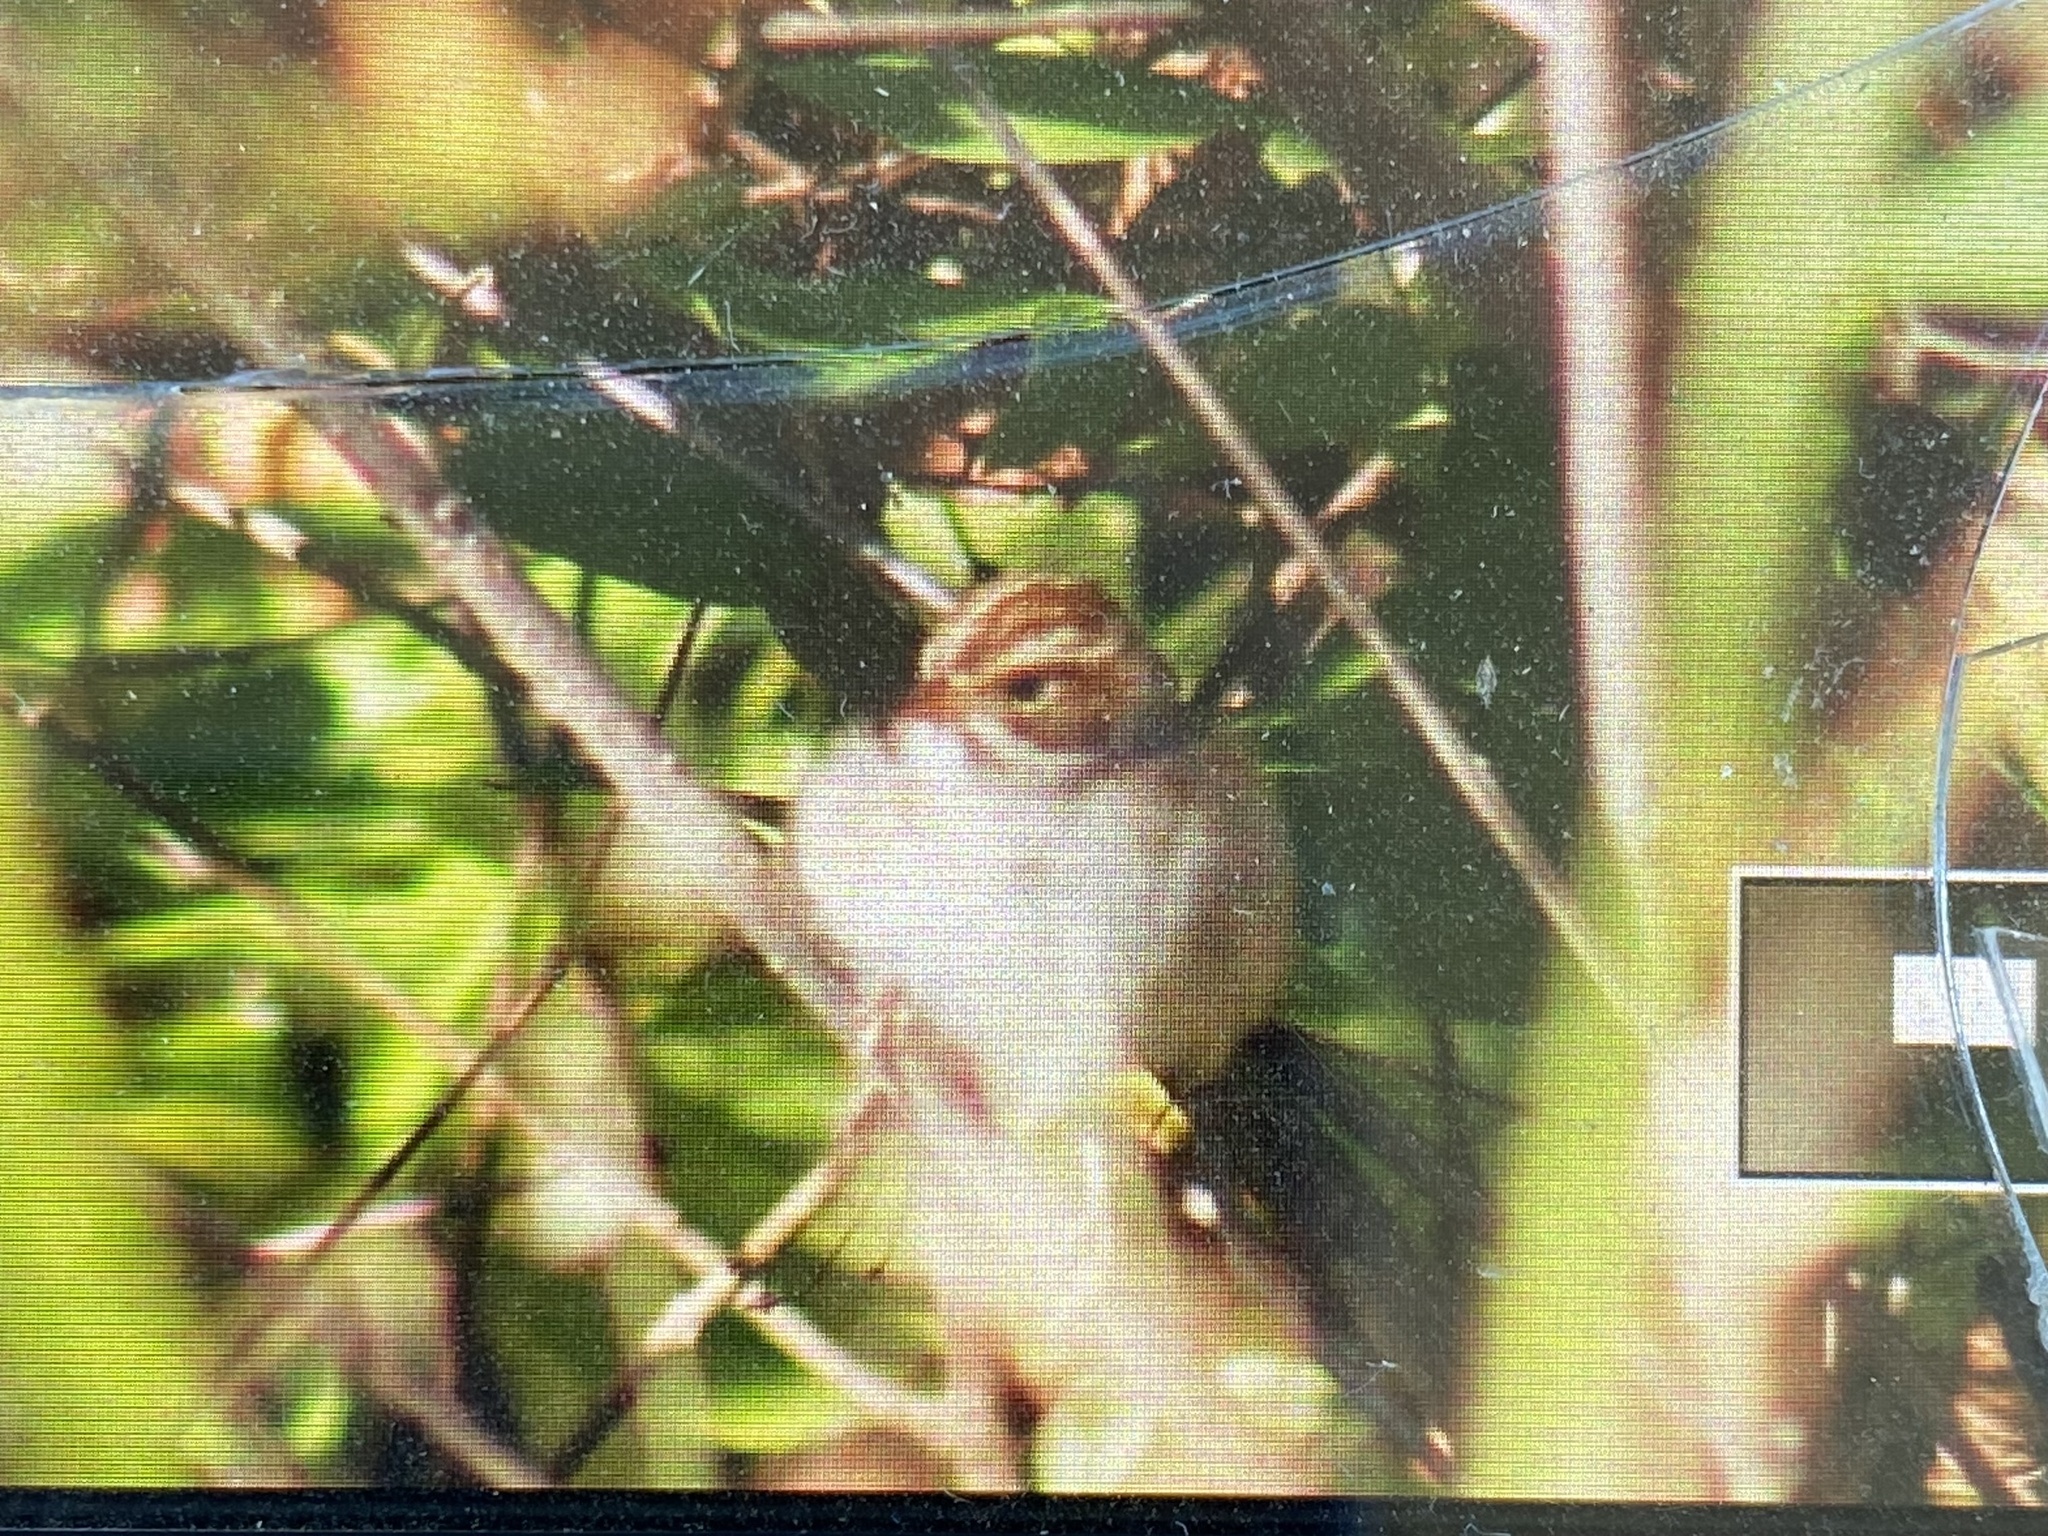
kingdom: Animalia
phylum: Chordata
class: Aves
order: Passeriformes
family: Passerellidae
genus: Spizella
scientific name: Spizella pallida
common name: Clay-colored sparrow
